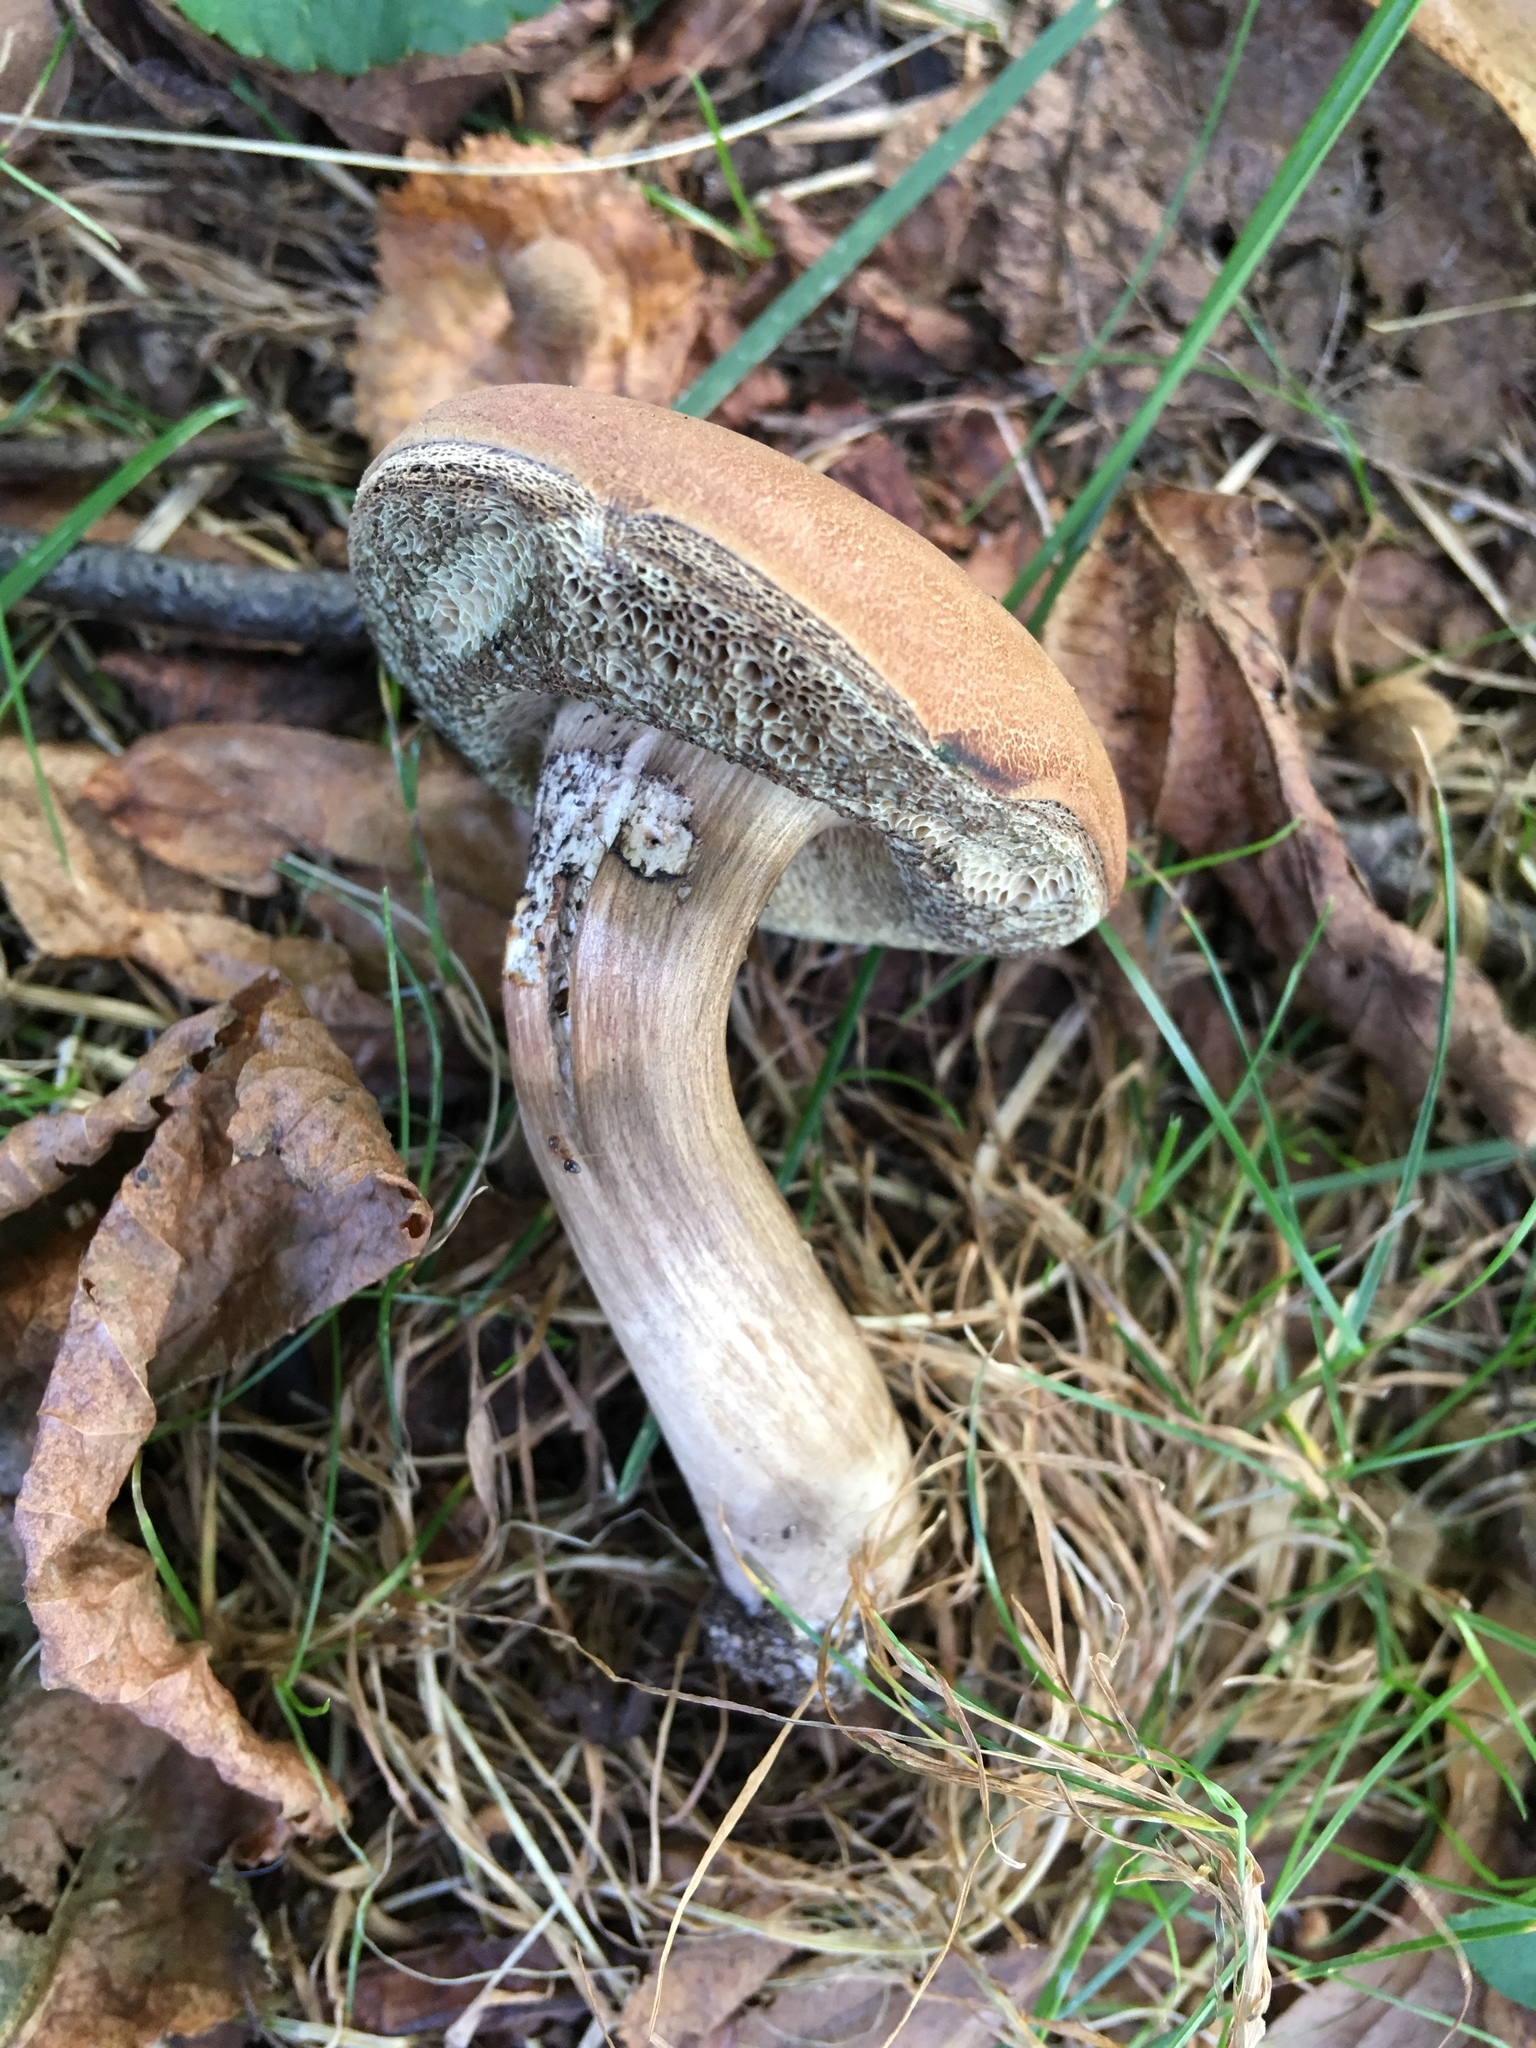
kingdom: Fungi
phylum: Basidiomycota
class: Agaricomycetes
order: Boletales
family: Boletaceae
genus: Porphyrellus
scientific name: Porphyrellus sordidus
